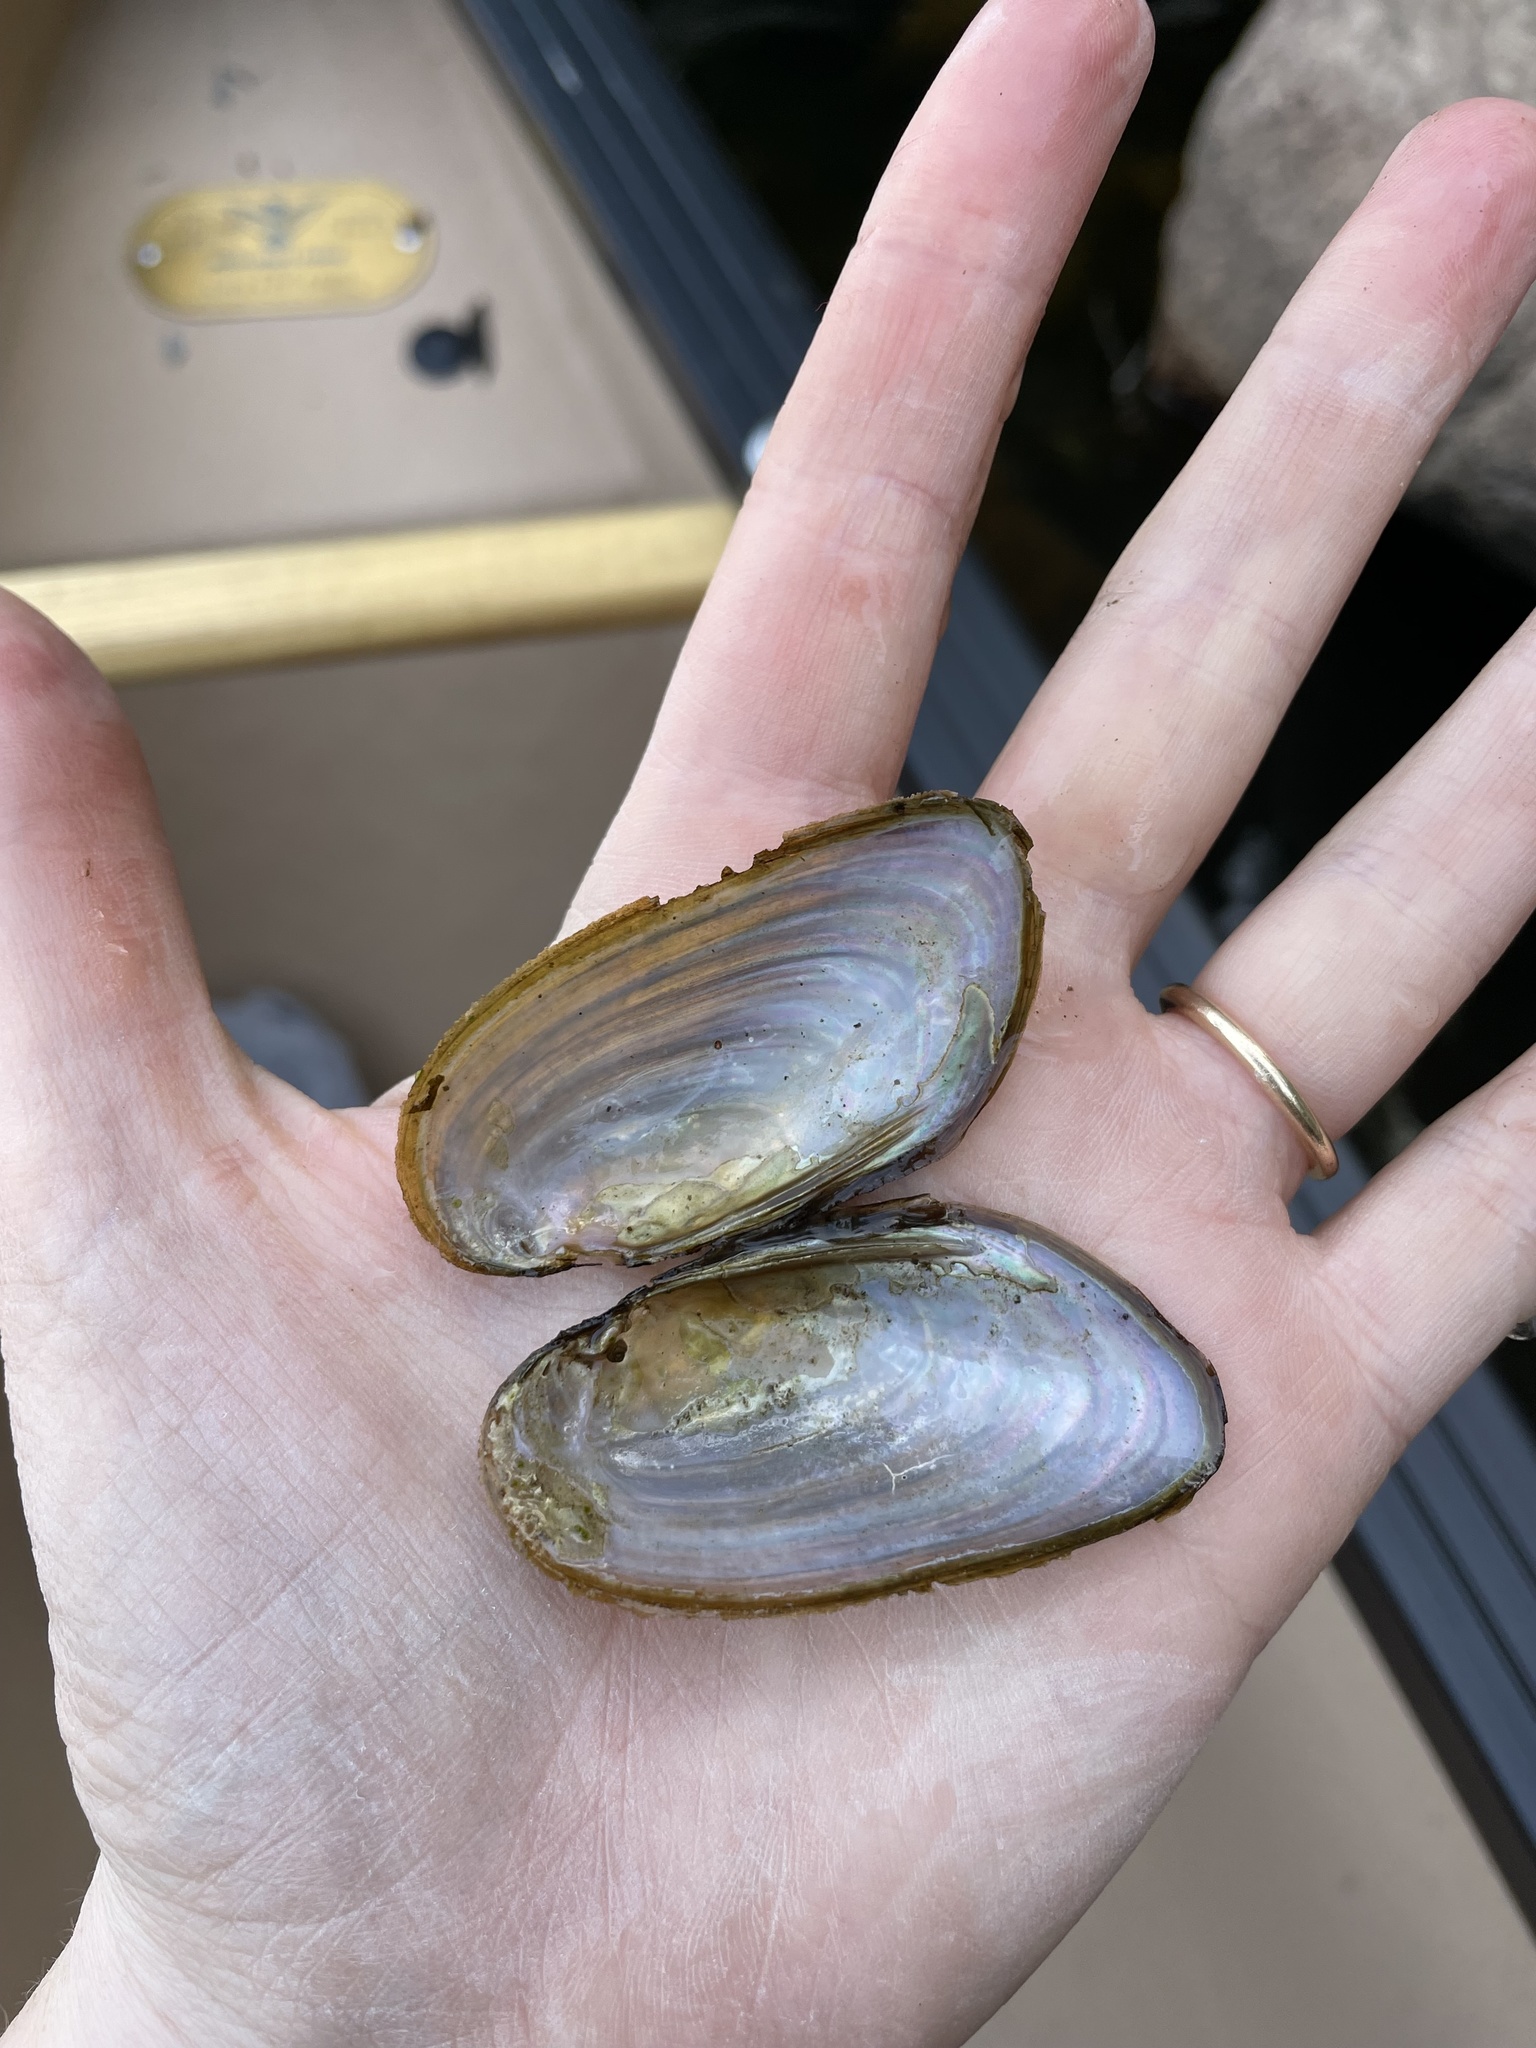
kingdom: Animalia
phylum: Mollusca
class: Bivalvia
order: Unionida
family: Unionidae
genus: Elliptio
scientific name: Elliptio complanata
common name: Eastern elliptio
